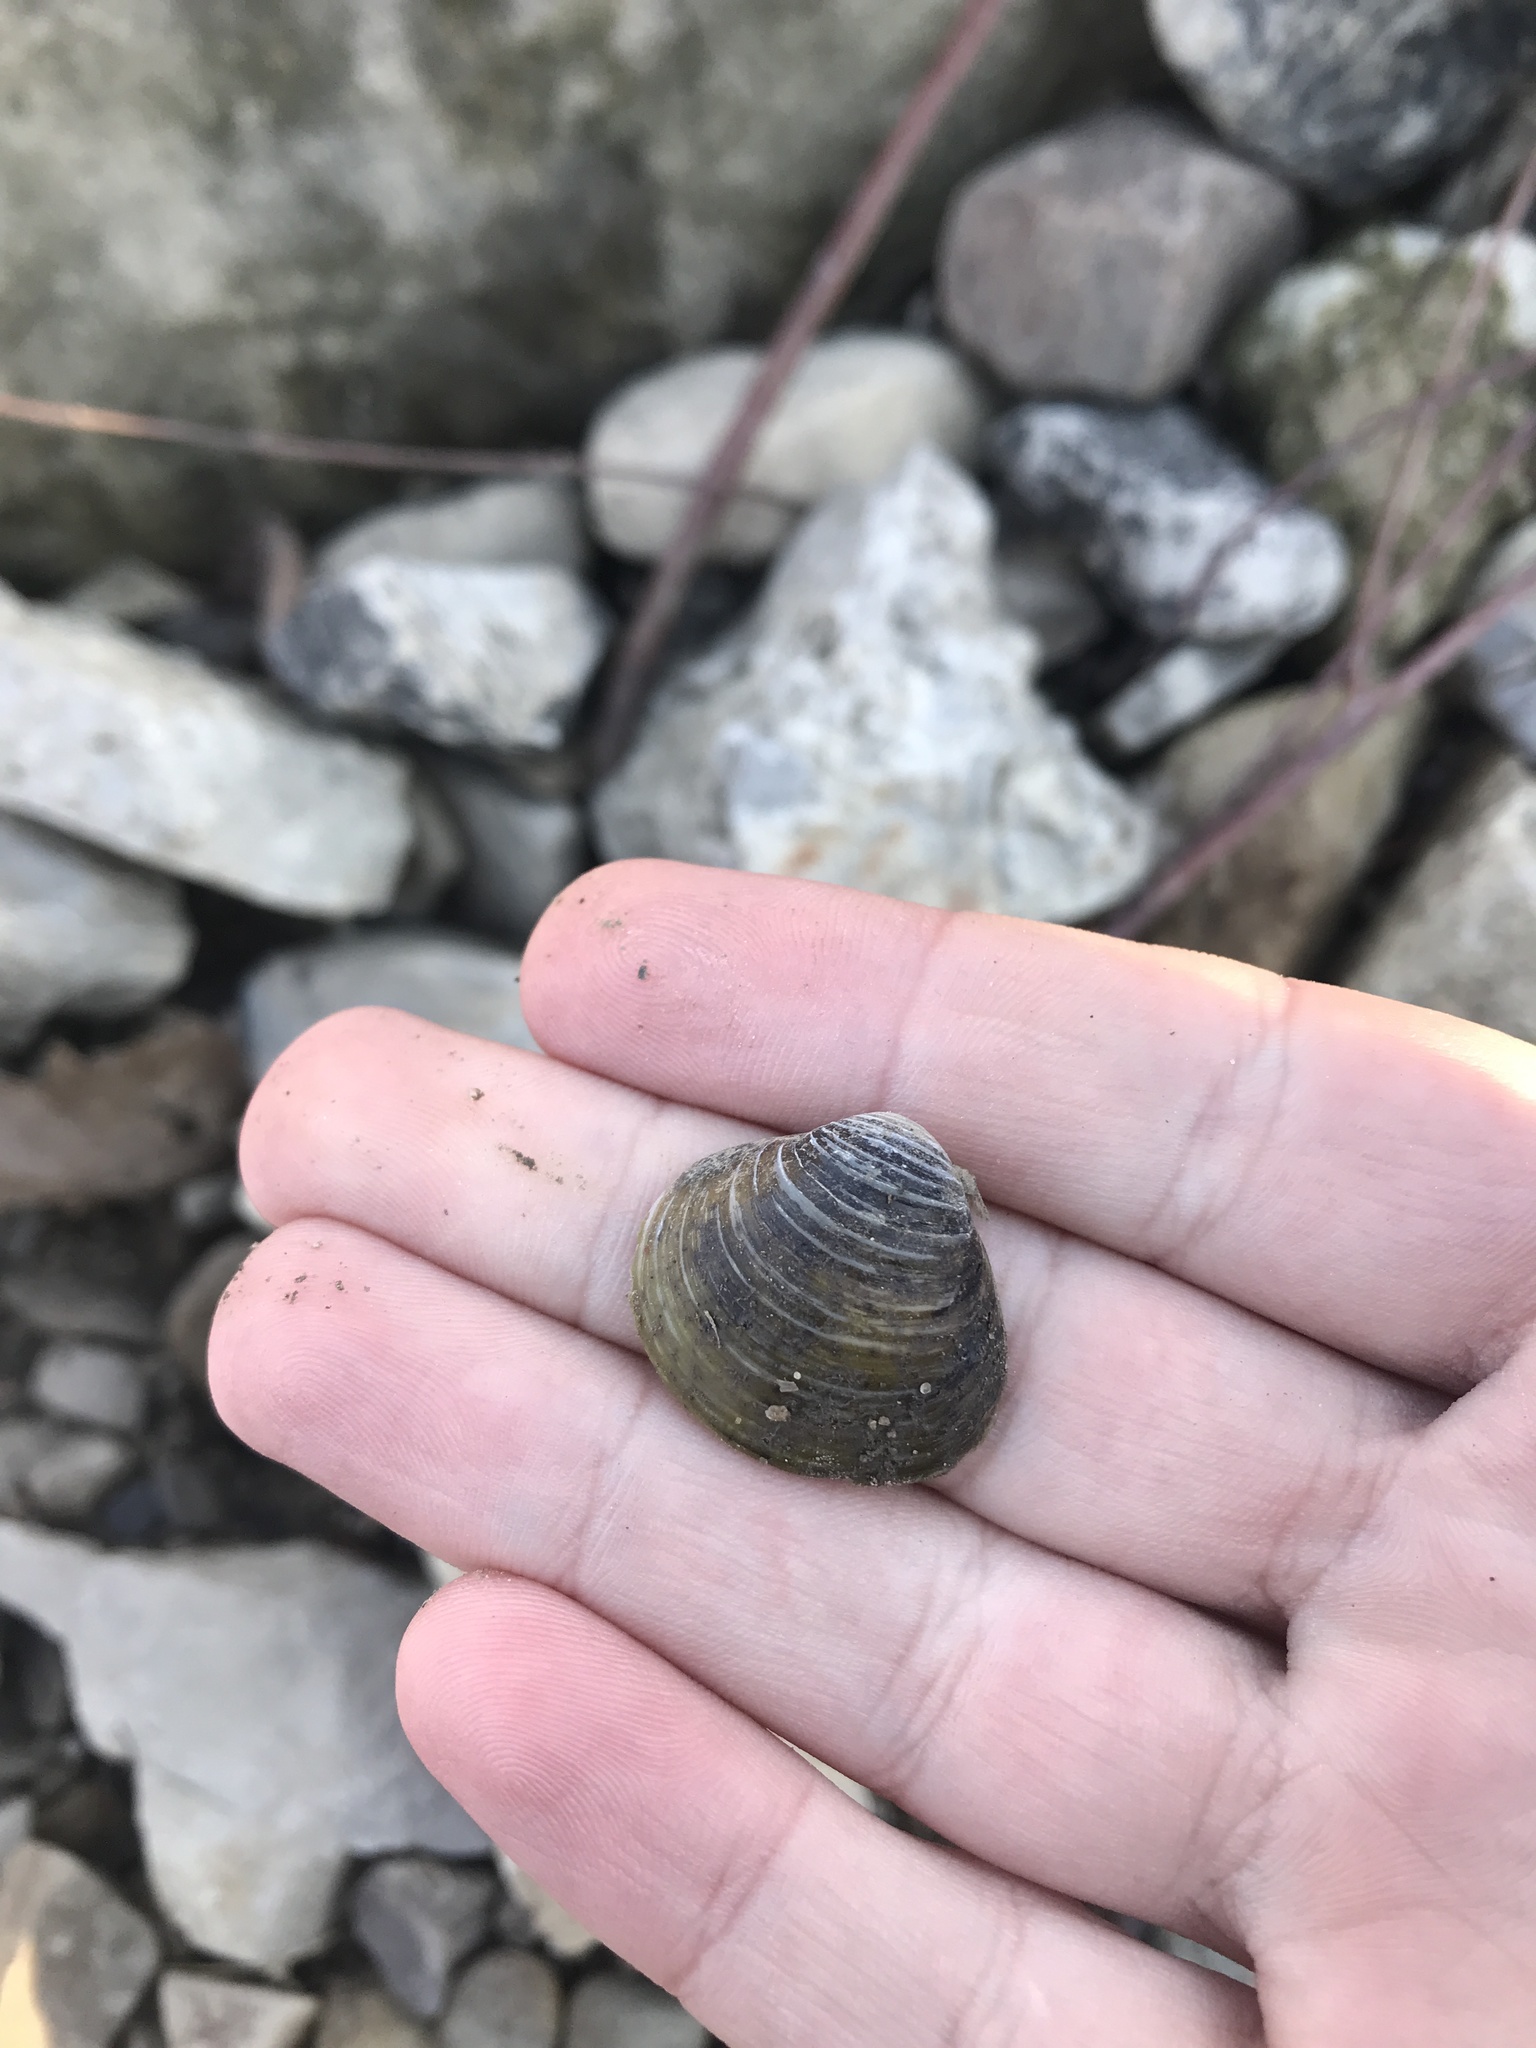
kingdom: Animalia
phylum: Mollusca
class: Bivalvia
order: Venerida
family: Cyrenidae
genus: Corbicula
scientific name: Corbicula fluminea
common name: Asian clam
